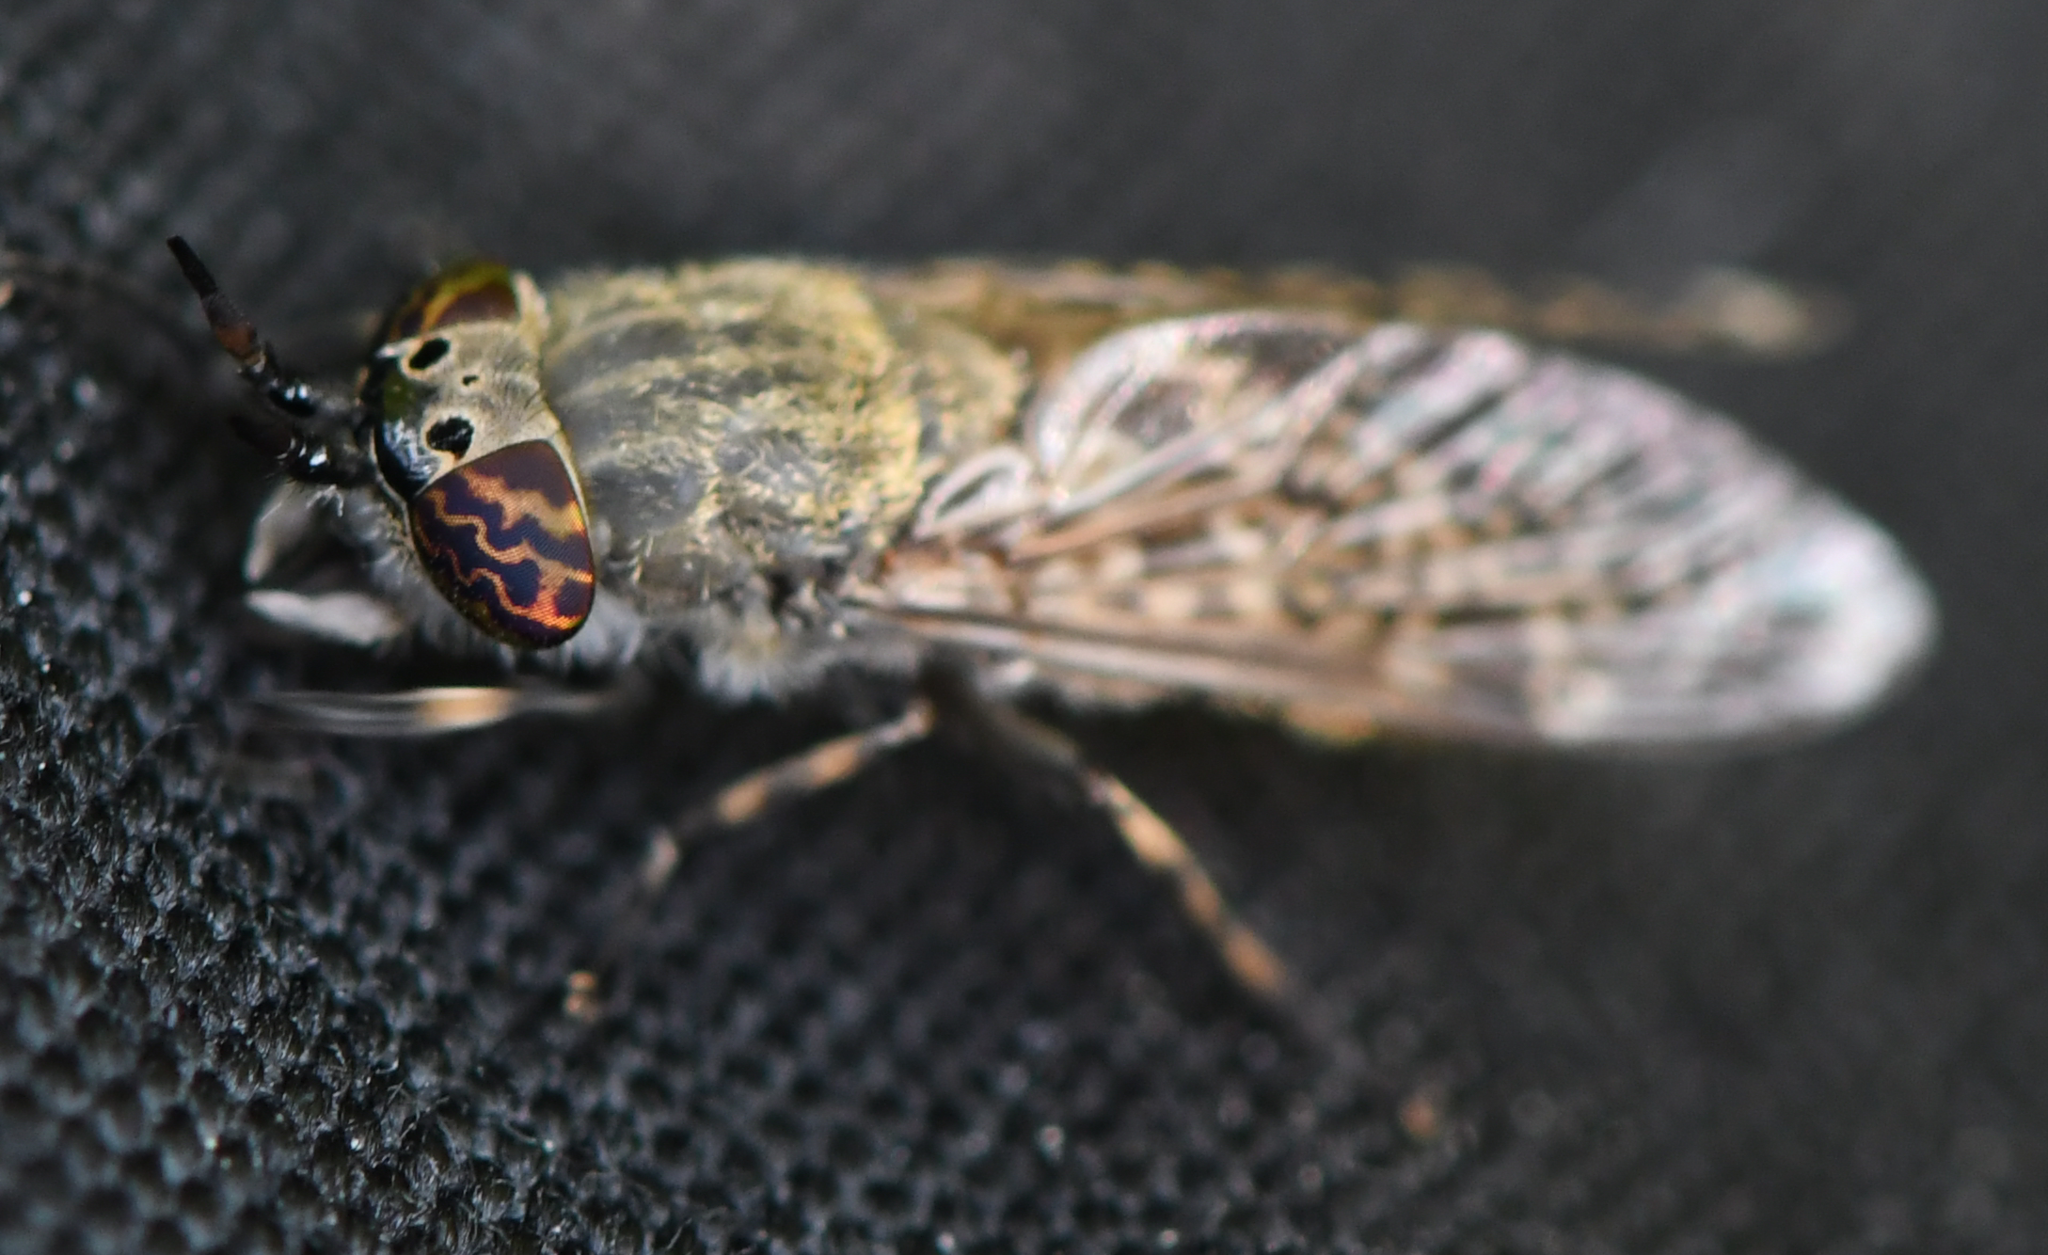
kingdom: Animalia
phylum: Arthropoda
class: Insecta
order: Diptera
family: Tabanidae
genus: Haematopota
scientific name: Haematopota pluvialis
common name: Common horse fly
